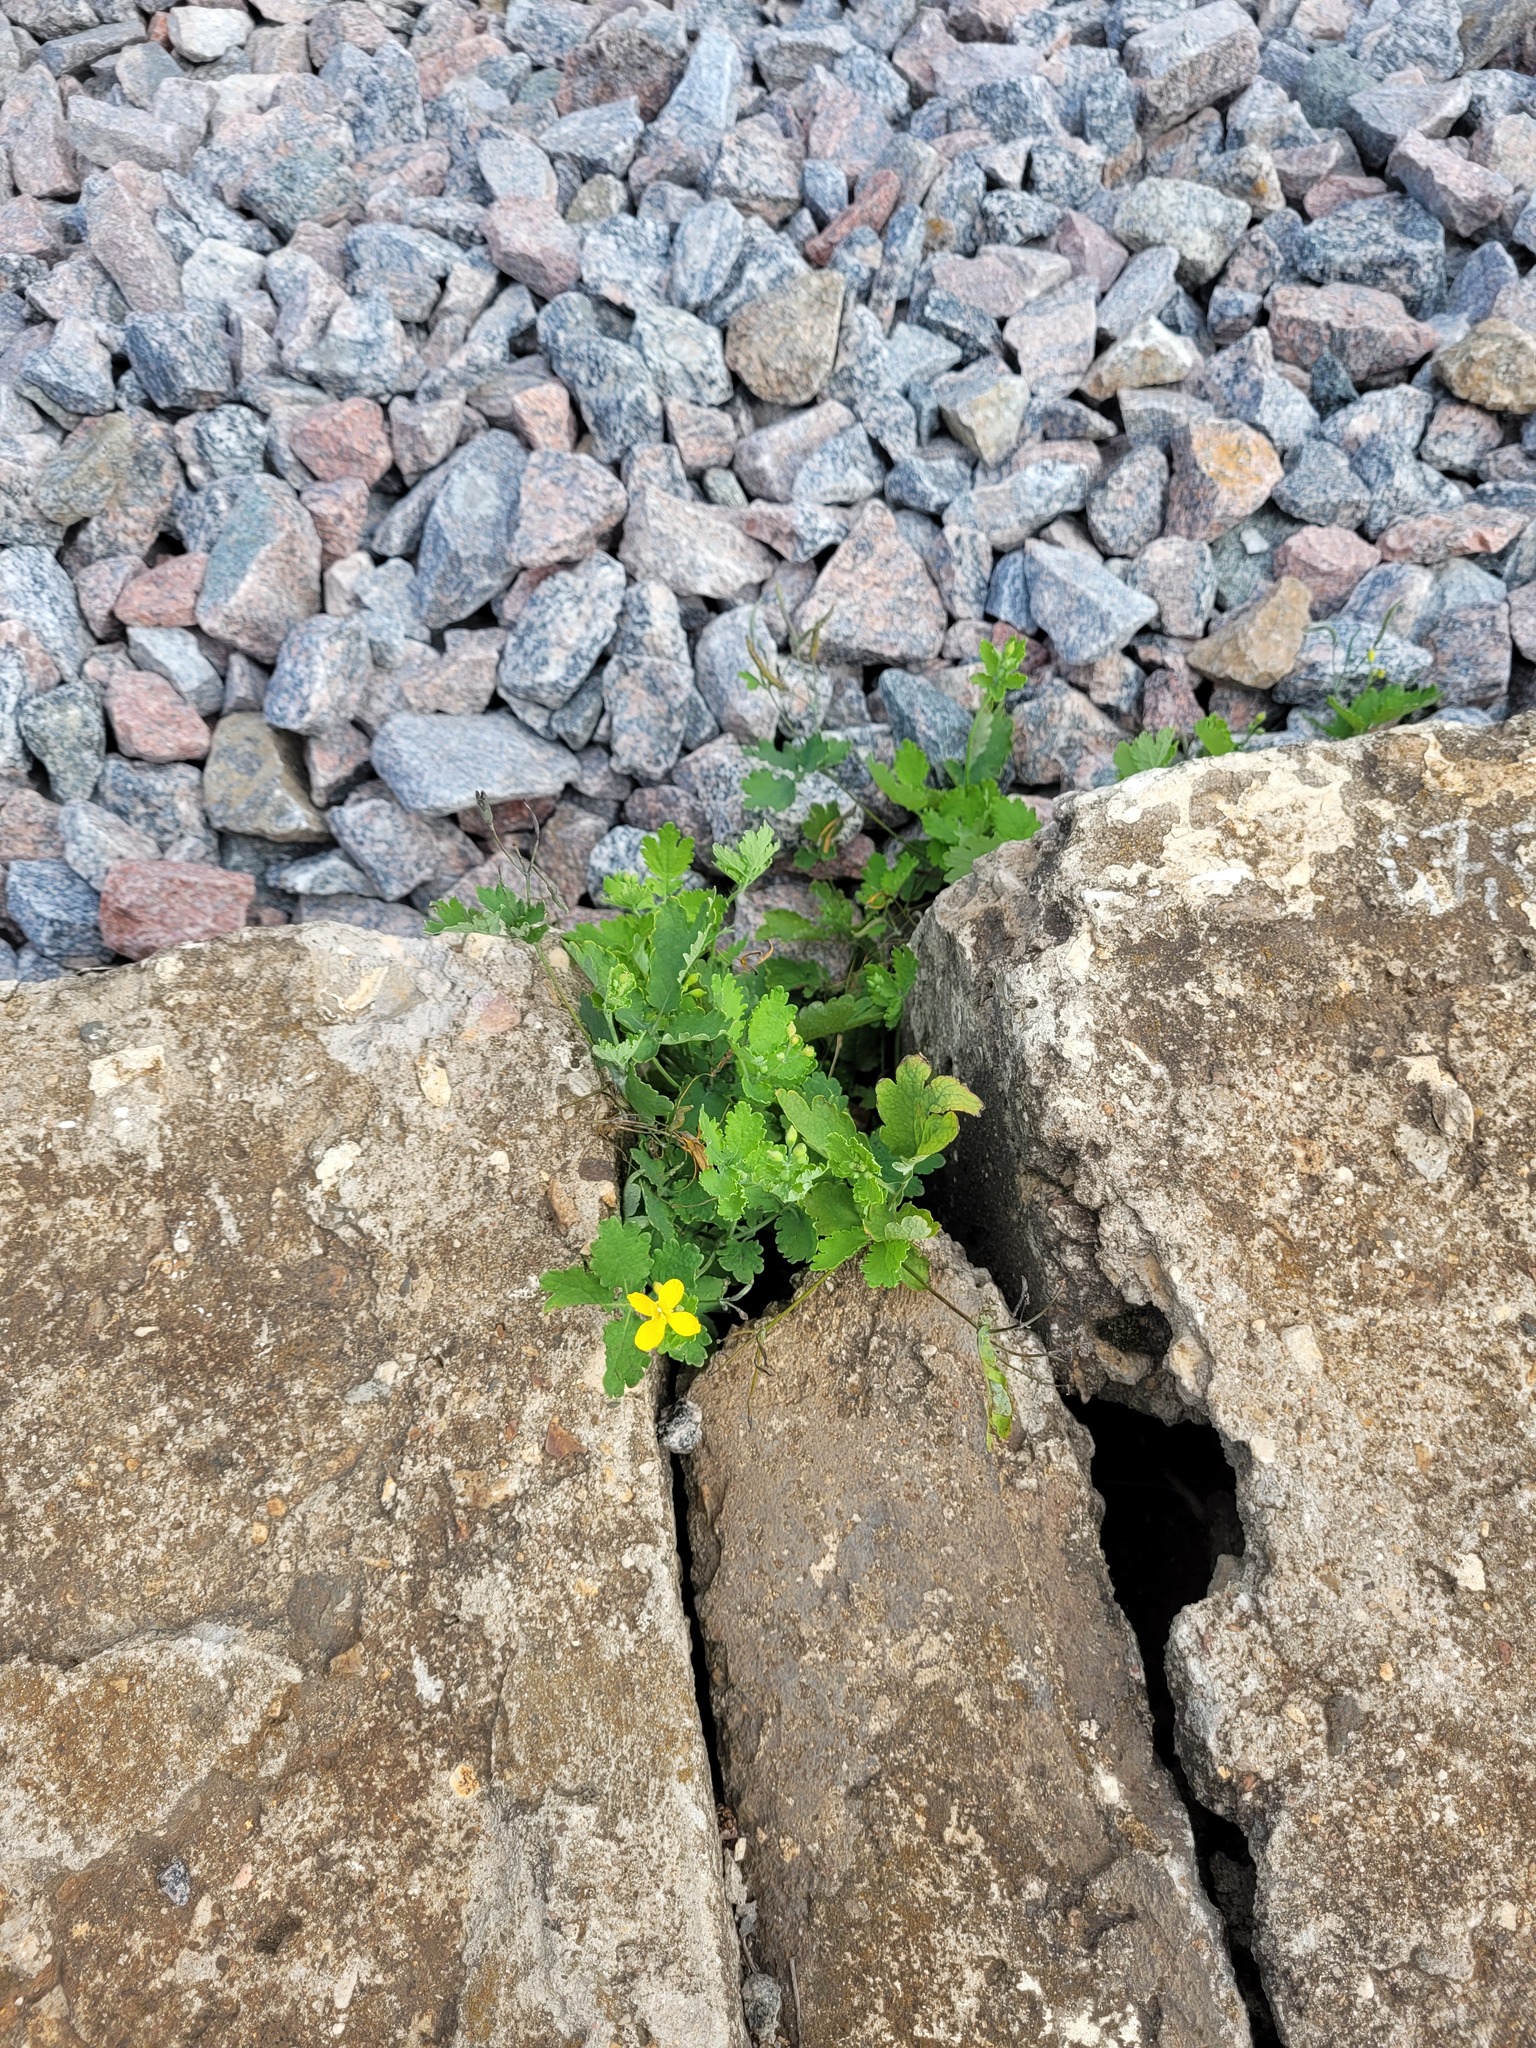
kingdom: Plantae
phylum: Tracheophyta
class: Magnoliopsida
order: Ranunculales
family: Papaveraceae
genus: Chelidonium
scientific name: Chelidonium majus
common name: Greater celandine
